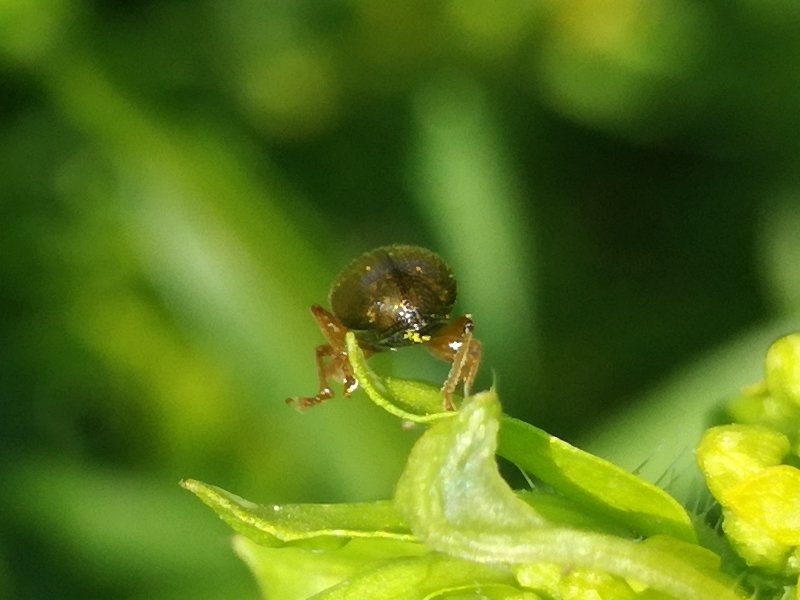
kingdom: Animalia
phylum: Arthropoda
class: Insecta
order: Coleoptera
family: Curculionidae
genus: Phyllobius
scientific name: Phyllobius oblongus
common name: Brown leaf weevil
